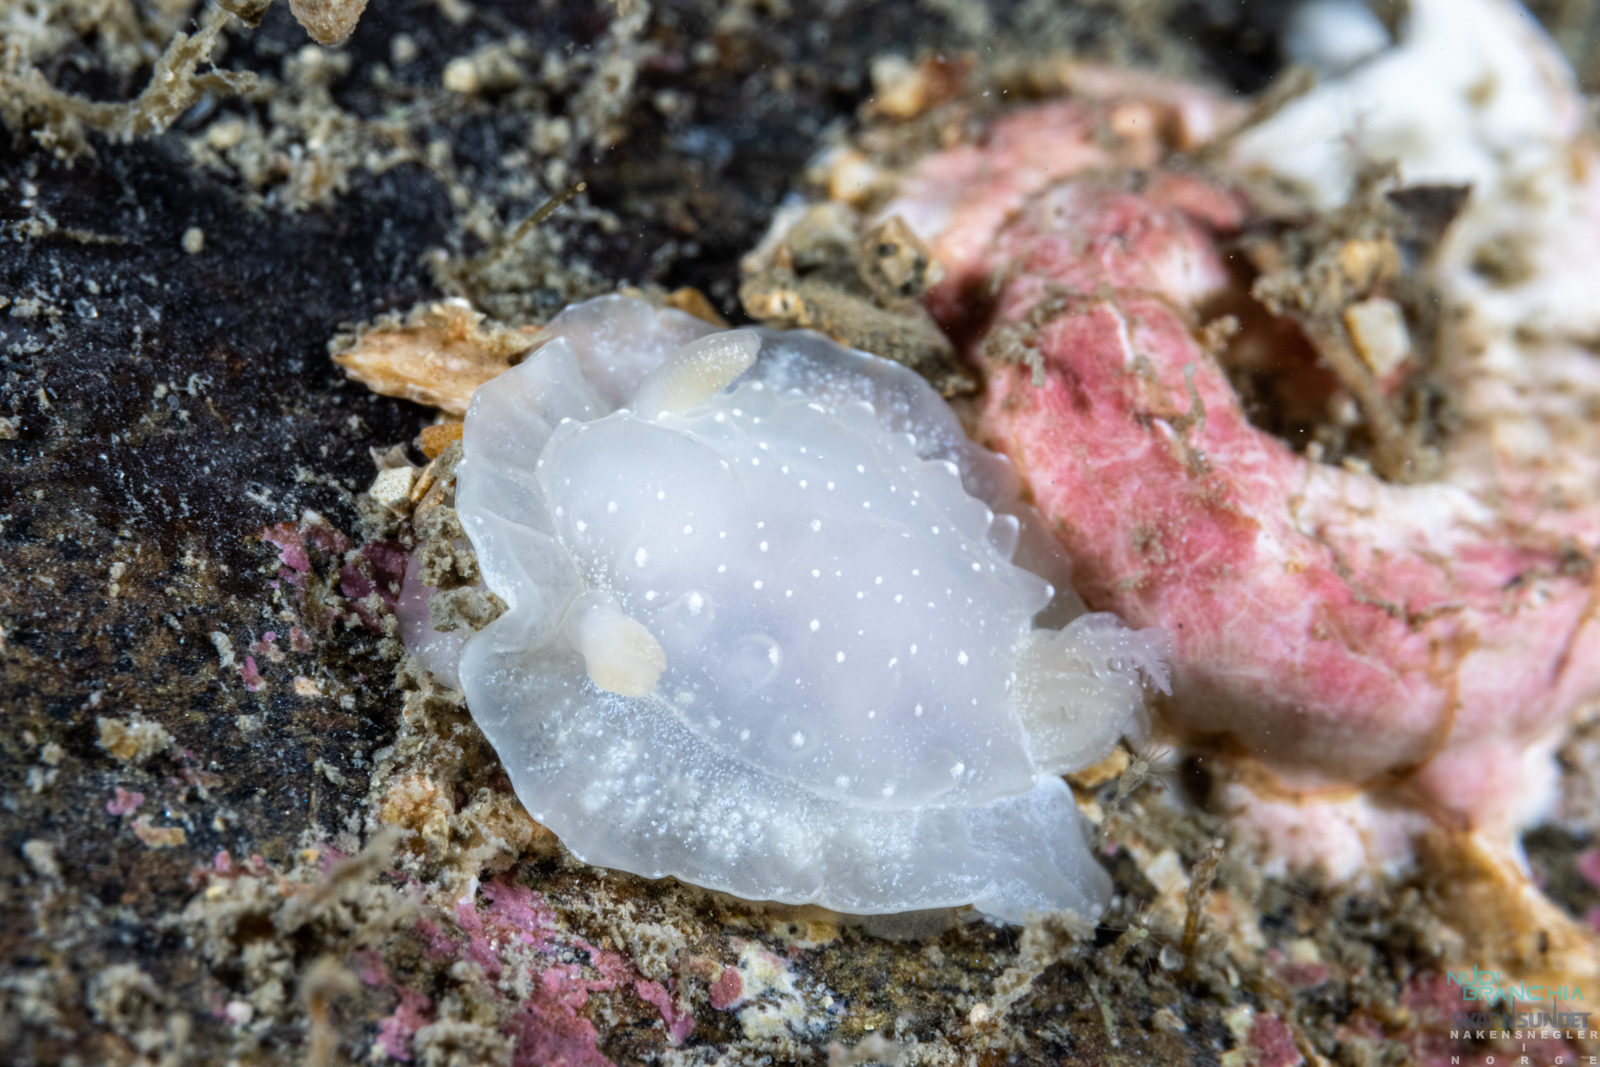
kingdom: Animalia
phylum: Mollusca
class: Gastropoda
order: Nudibranchia
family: Goniodorididae
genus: Okenia
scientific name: Okenia
